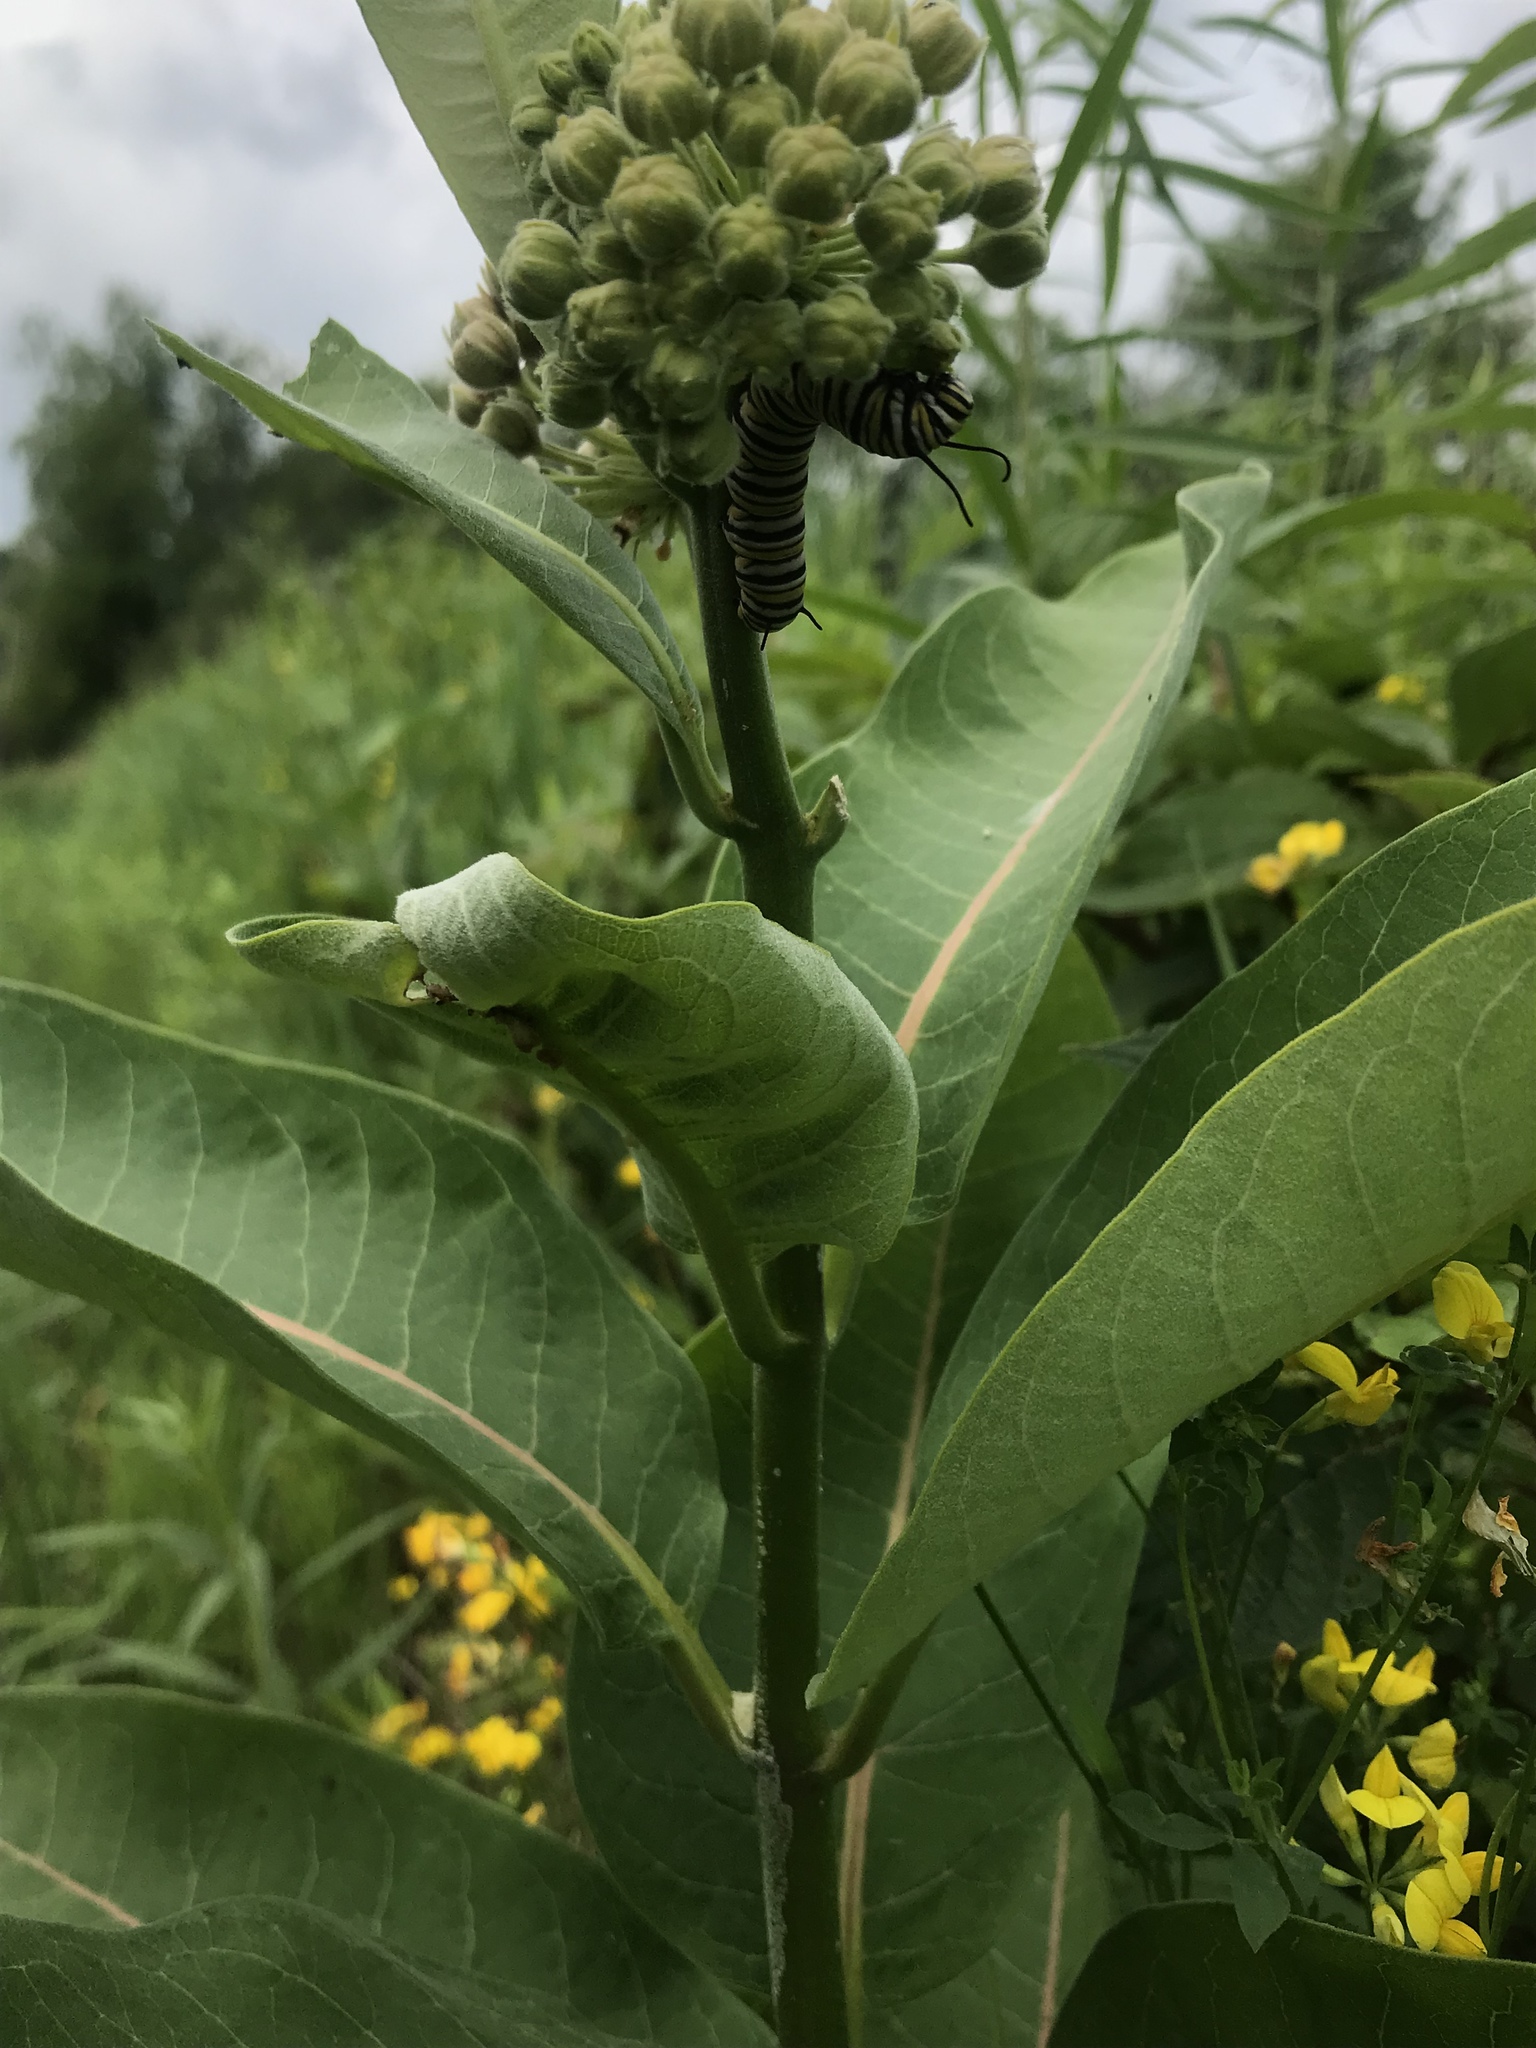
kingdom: Animalia
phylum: Arthropoda
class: Insecta
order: Lepidoptera
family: Nymphalidae
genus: Danaus
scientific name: Danaus plexippus
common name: Monarch
